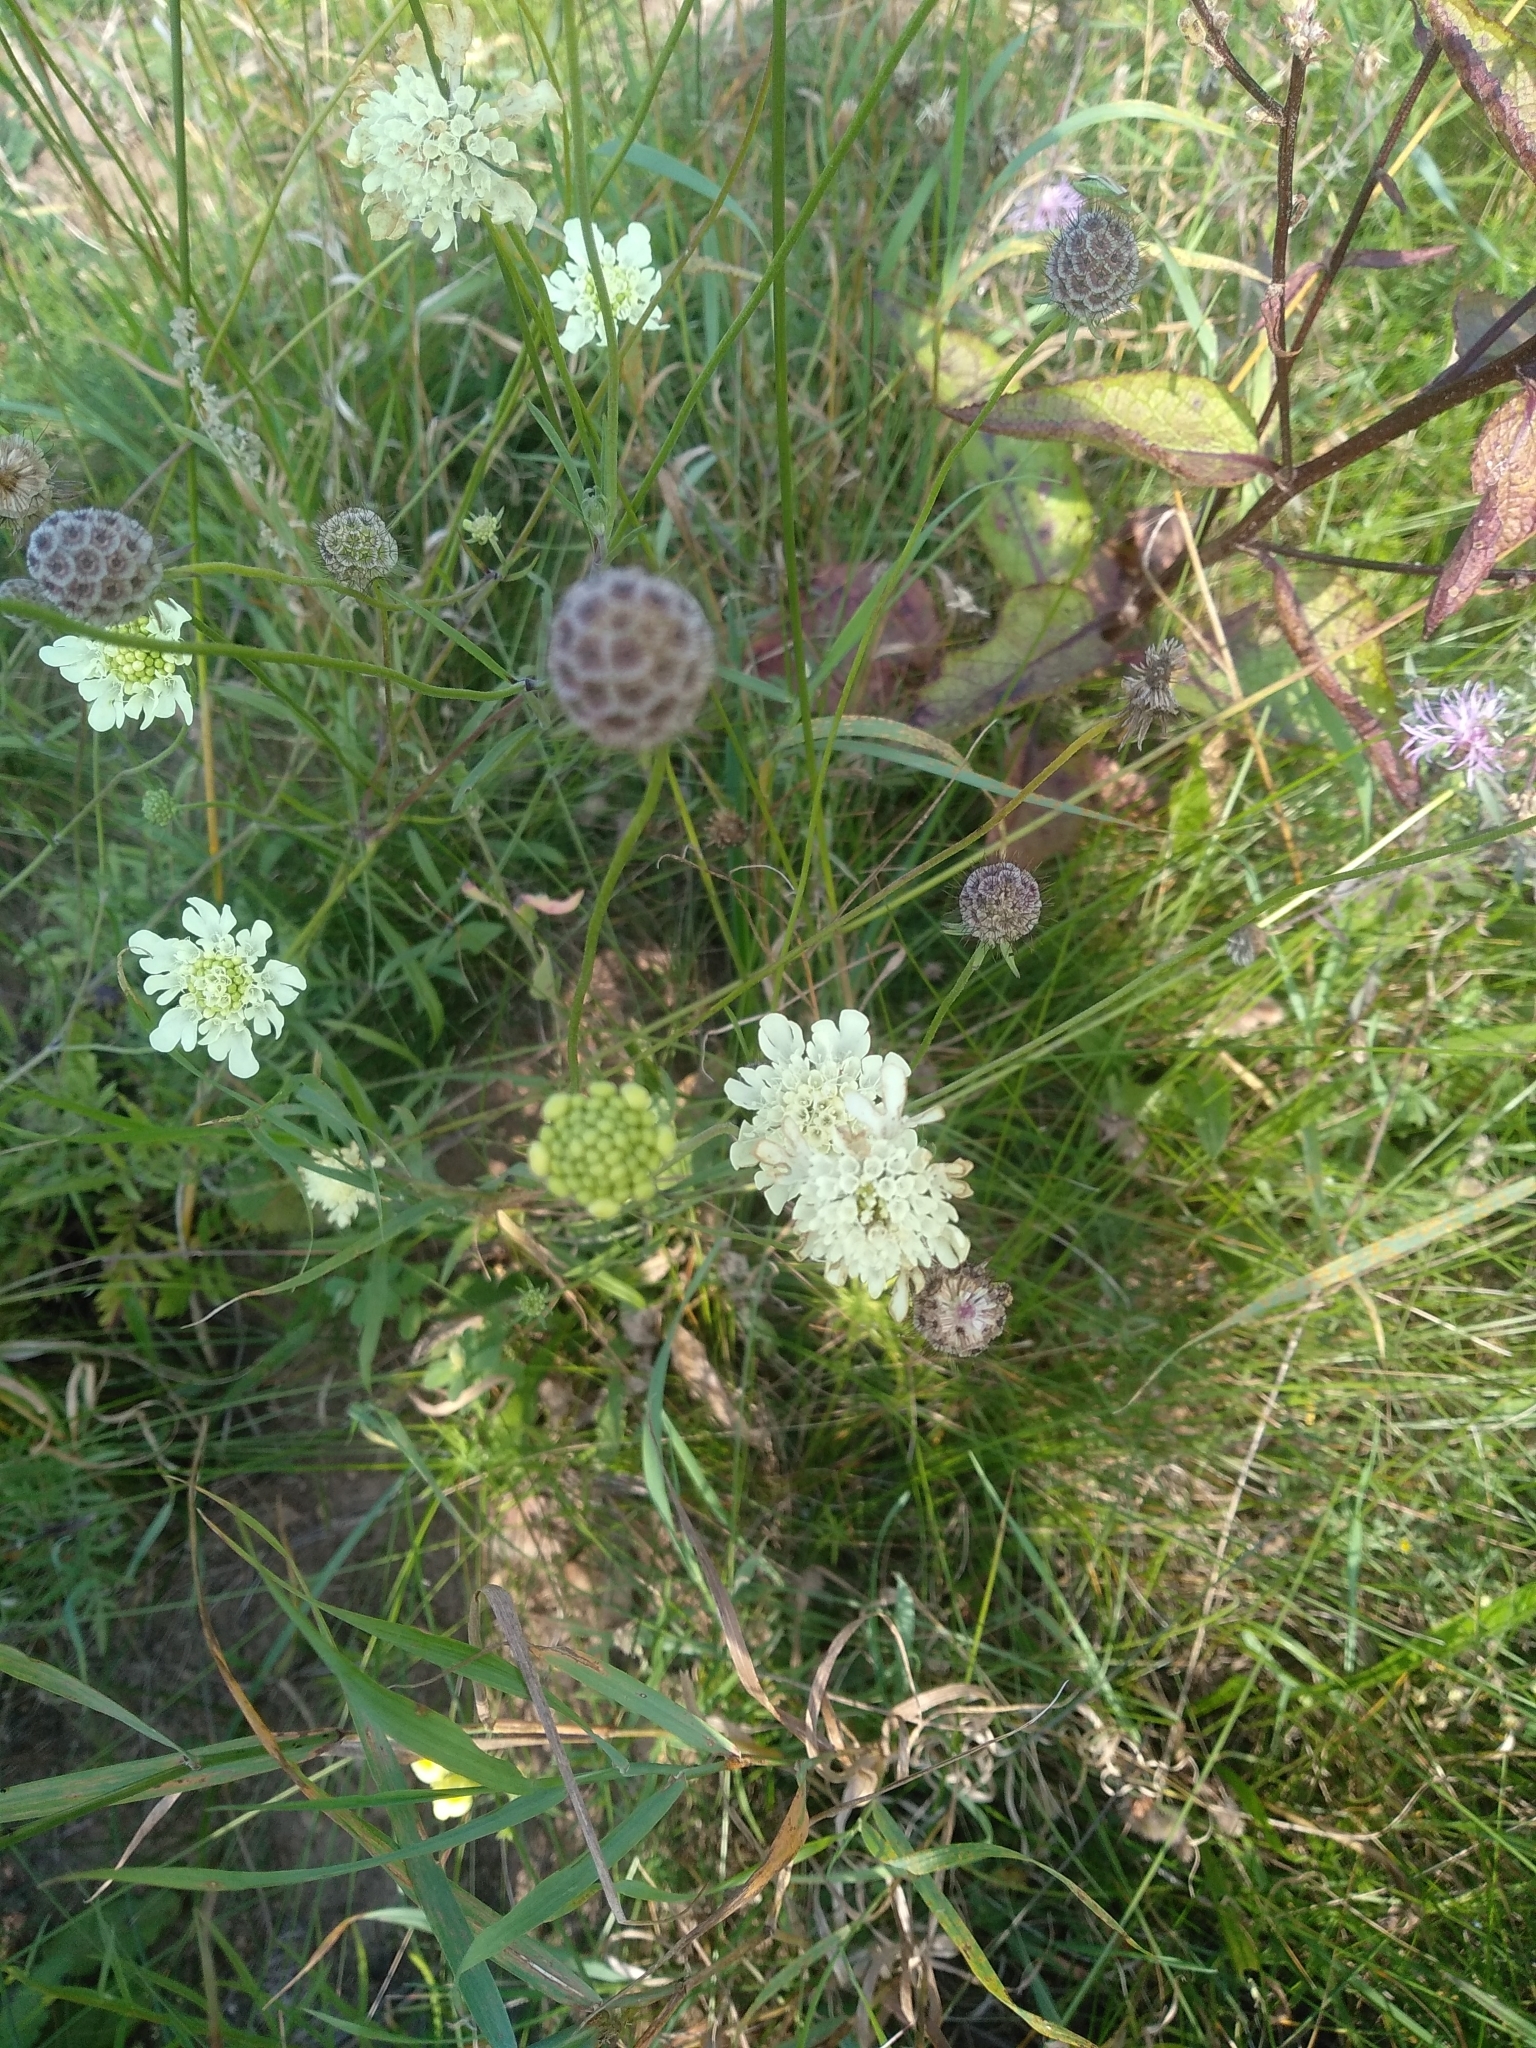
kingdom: Plantae
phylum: Tracheophyta
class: Magnoliopsida
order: Dipsacales
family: Caprifoliaceae
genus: Scabiosa
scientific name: Scabiosa ochroleuca
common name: Cream pincushions
